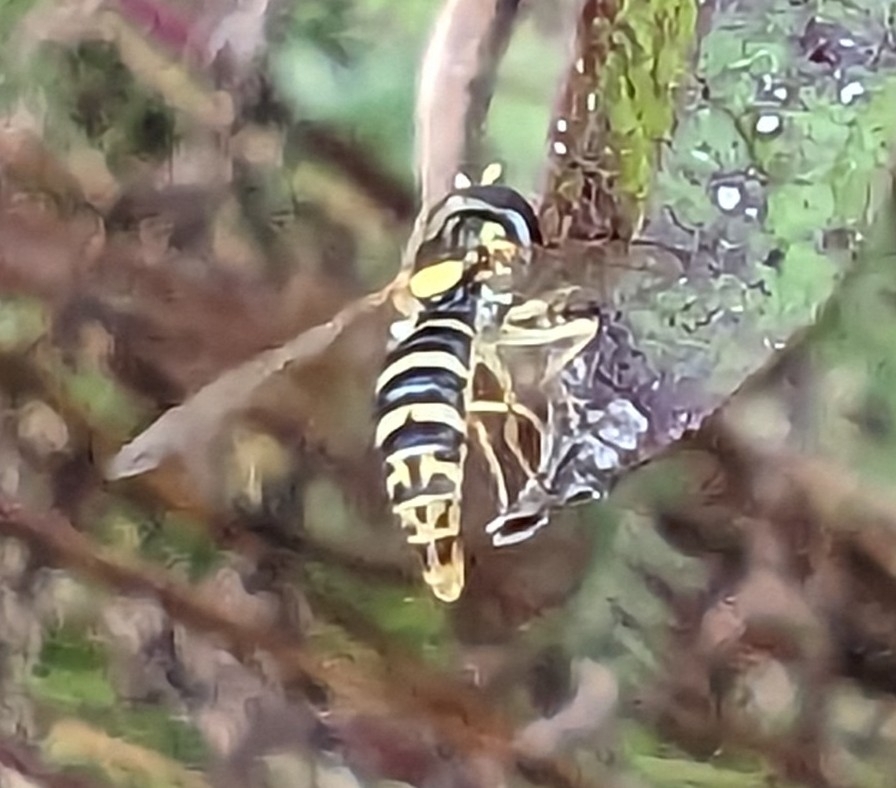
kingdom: Animalia
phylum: Arthropoda
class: Insecta
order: Diptera
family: Syrphidae
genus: Sphaerophoria
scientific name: Sphaerophoria
